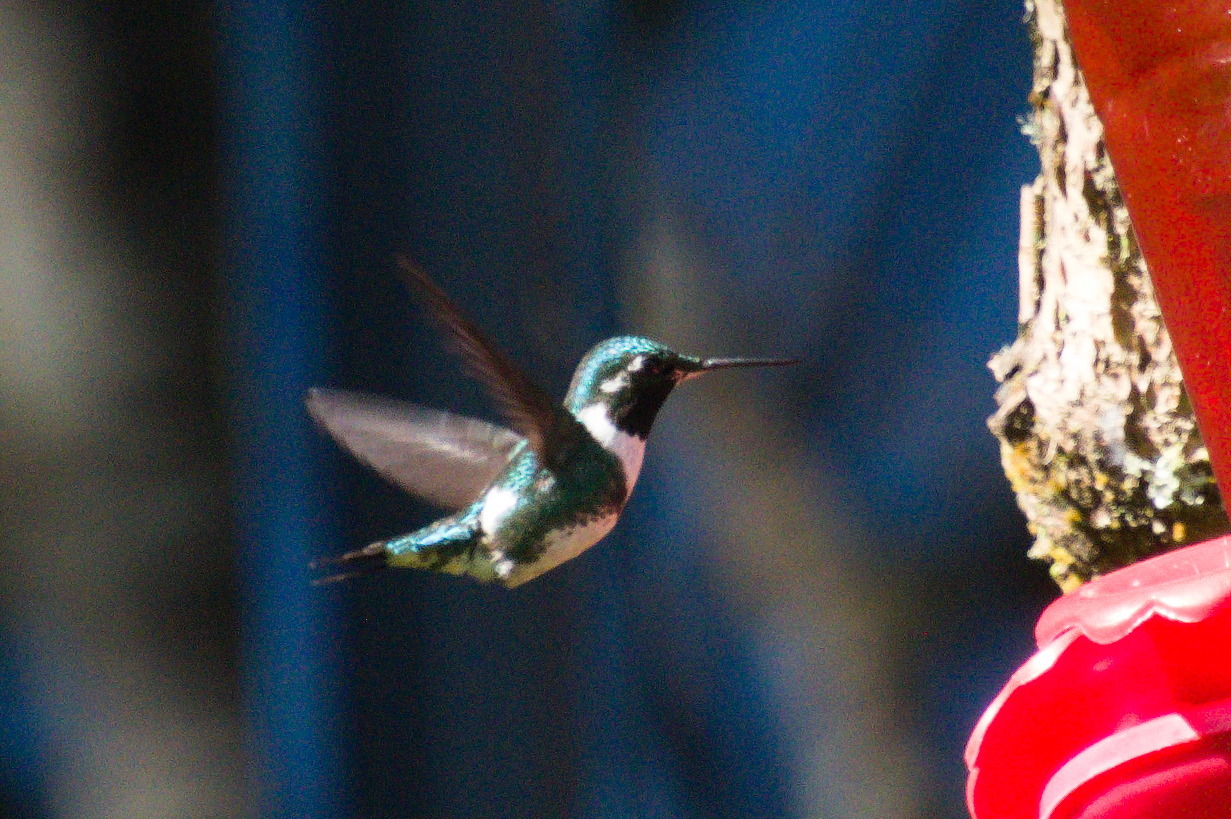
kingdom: Animalia
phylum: Chordata
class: Aves
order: Apodiformes
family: Trochilidae
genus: Chaetocercus
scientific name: Chaetocercus mulsant
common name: White-bellied woodstar
